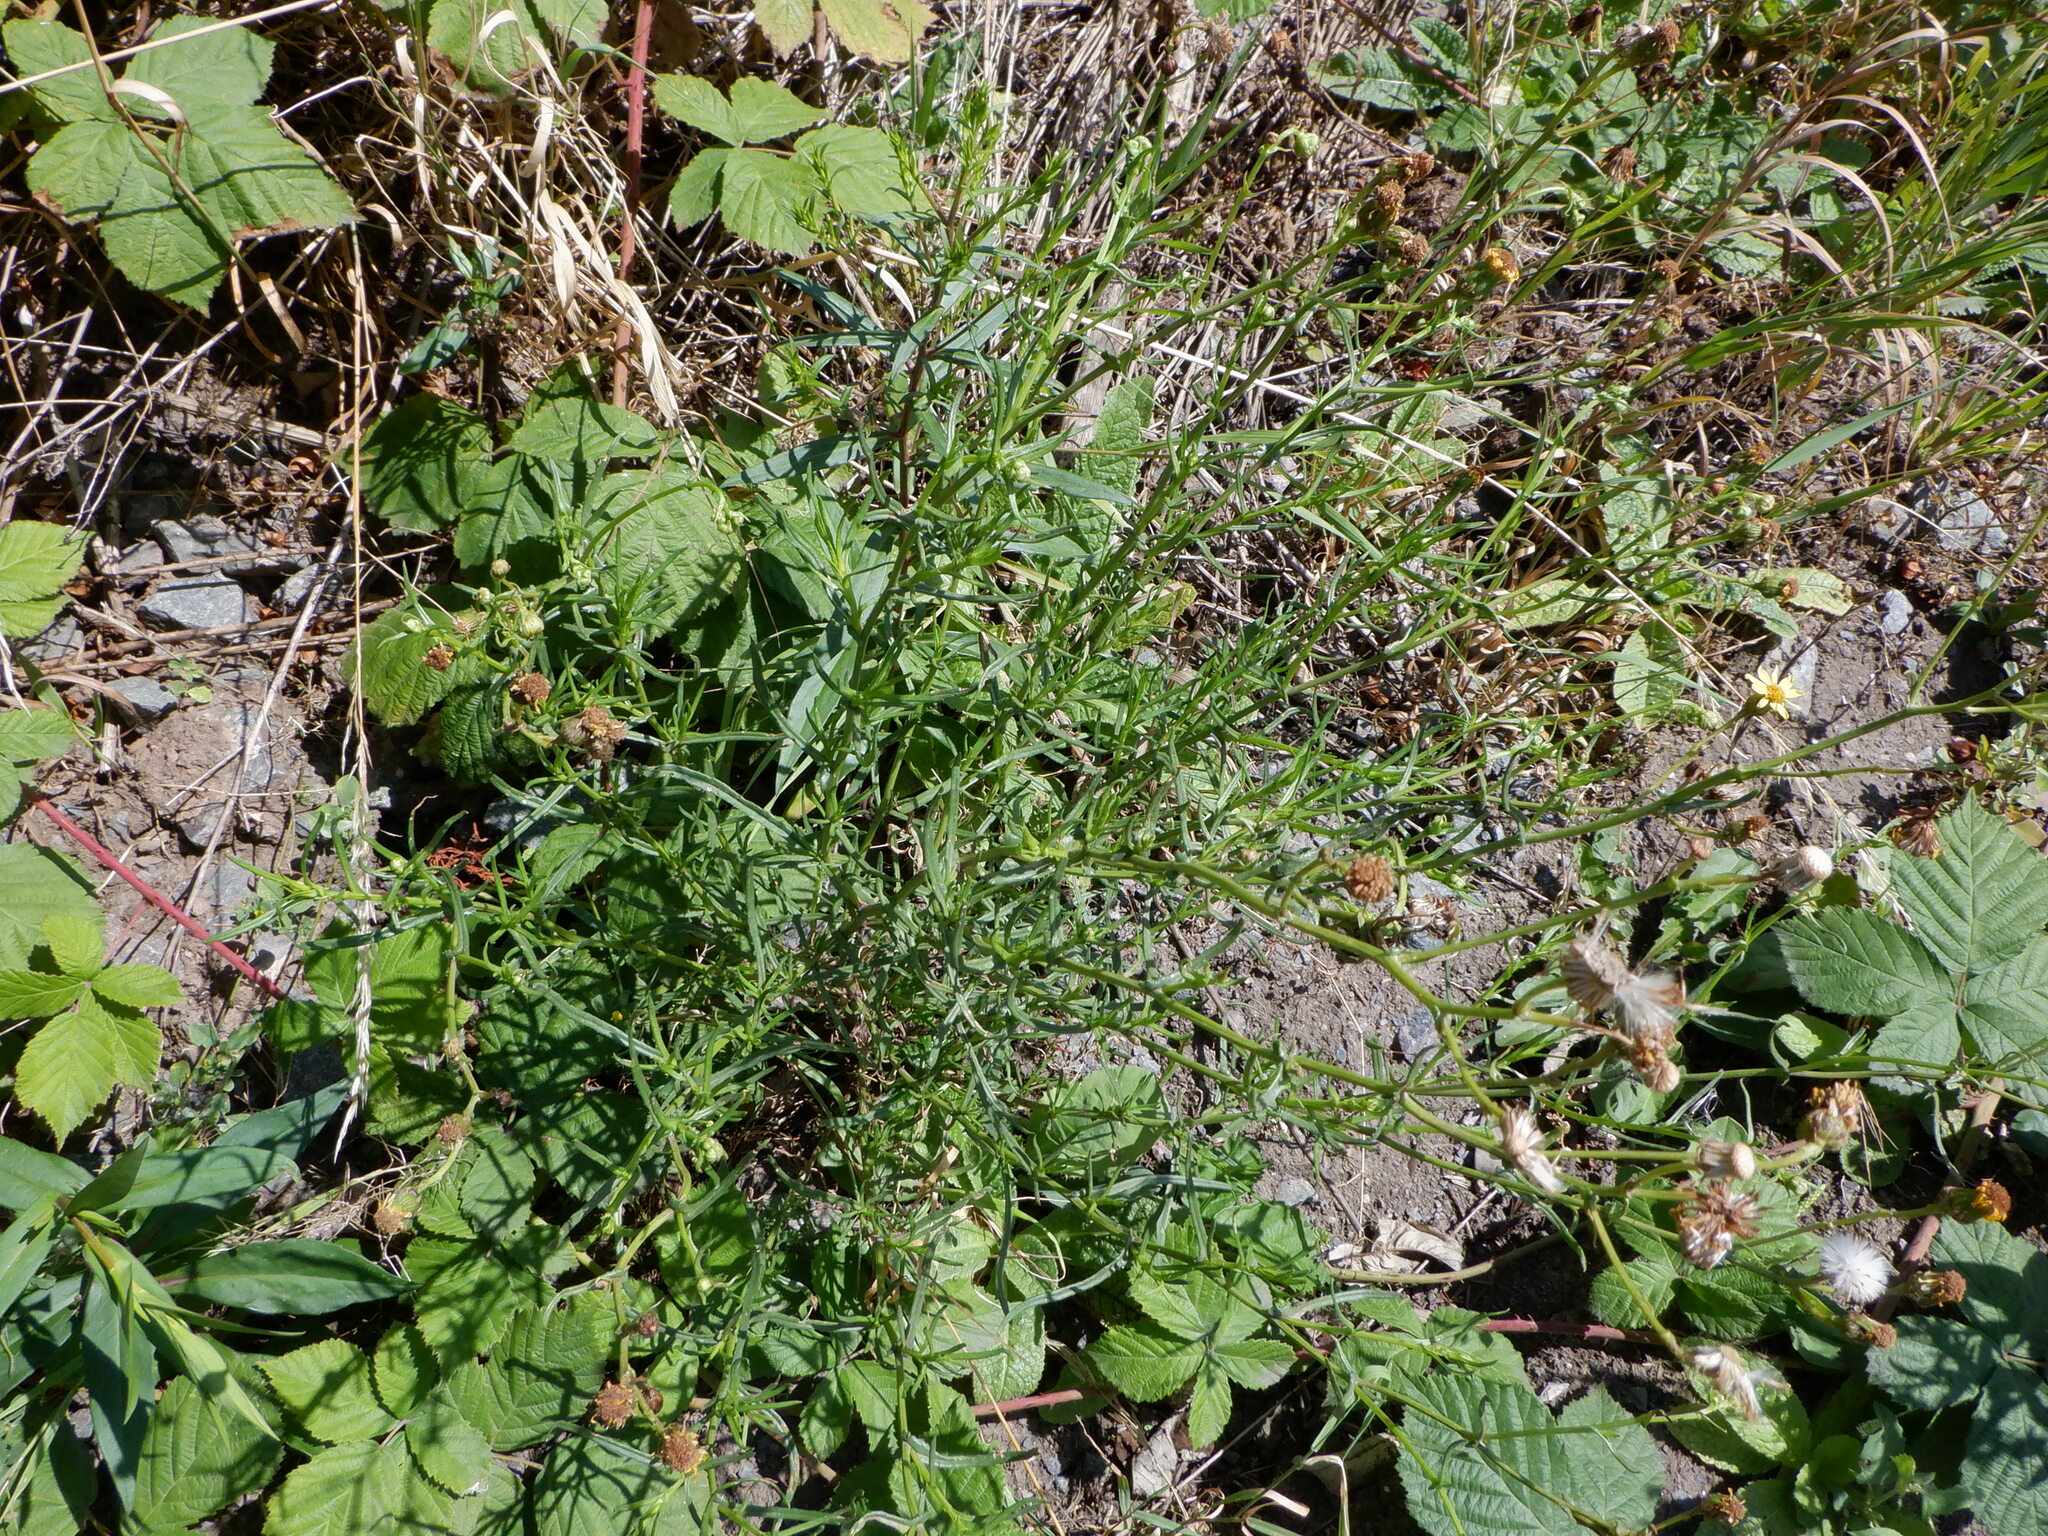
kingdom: Plantae
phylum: Tracheophyta
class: Magnoliopsida
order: Asterales
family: Asteraceae
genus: Senecio
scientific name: Senecio inaequidens
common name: Narrow-leaved ragwort
